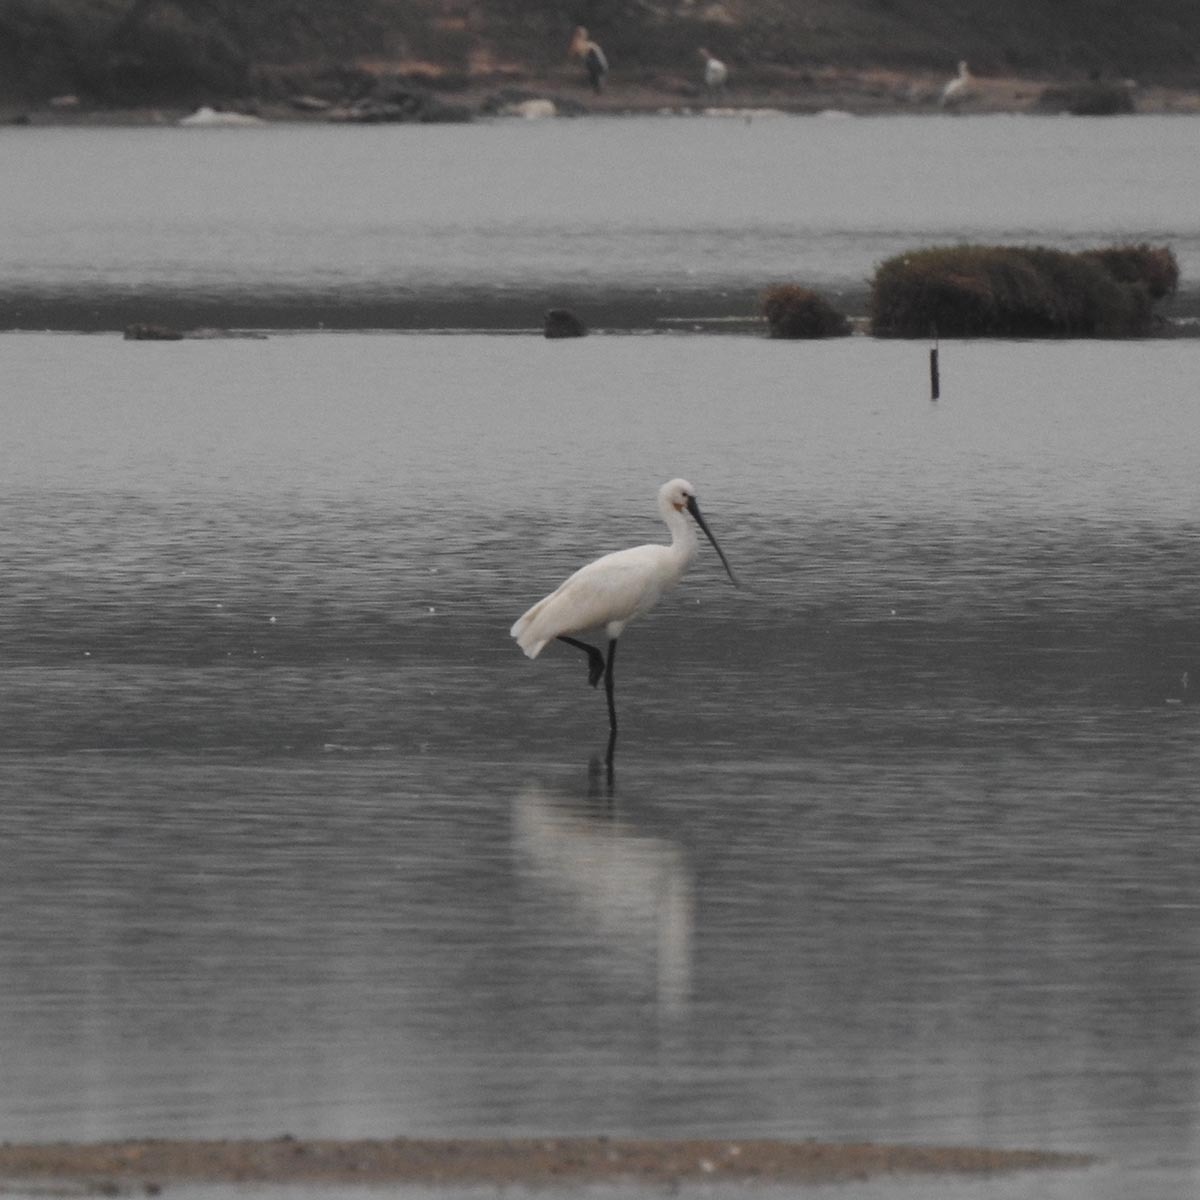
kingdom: Animalia
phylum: Chordata
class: Aves
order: Pelecaniformes
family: Threskiornithidae
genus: Platalea
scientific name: Platalea leucorodia
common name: Eurasian spoonbill
